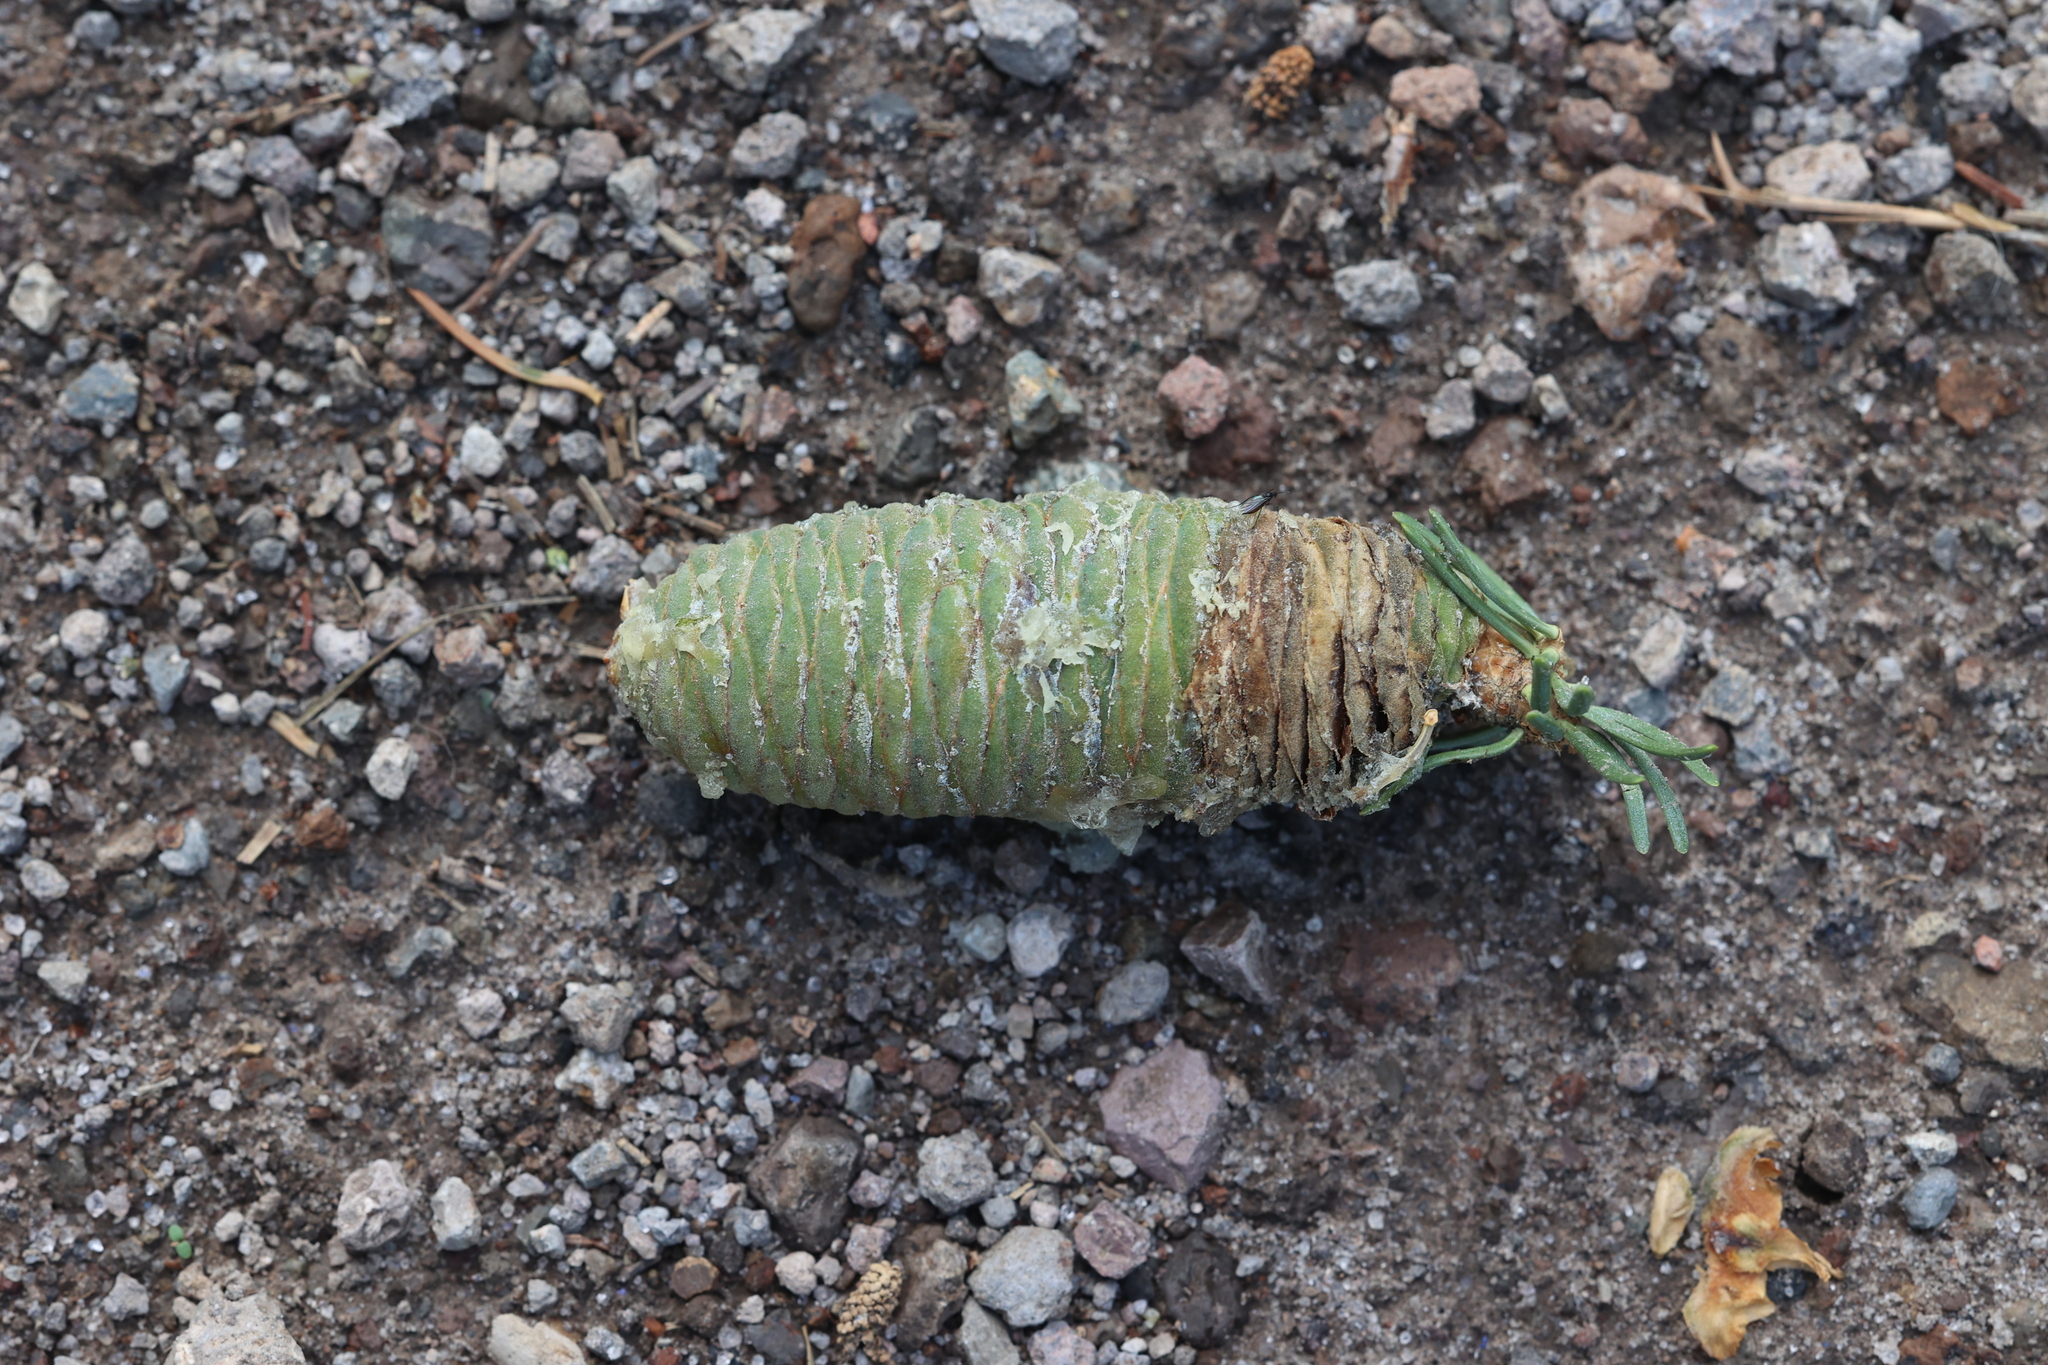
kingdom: Plantae
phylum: Tracheophyta
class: Pinopsida
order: Pinales
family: Pinaceae
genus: Abies
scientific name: Abies concolor
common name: Colorado fir
